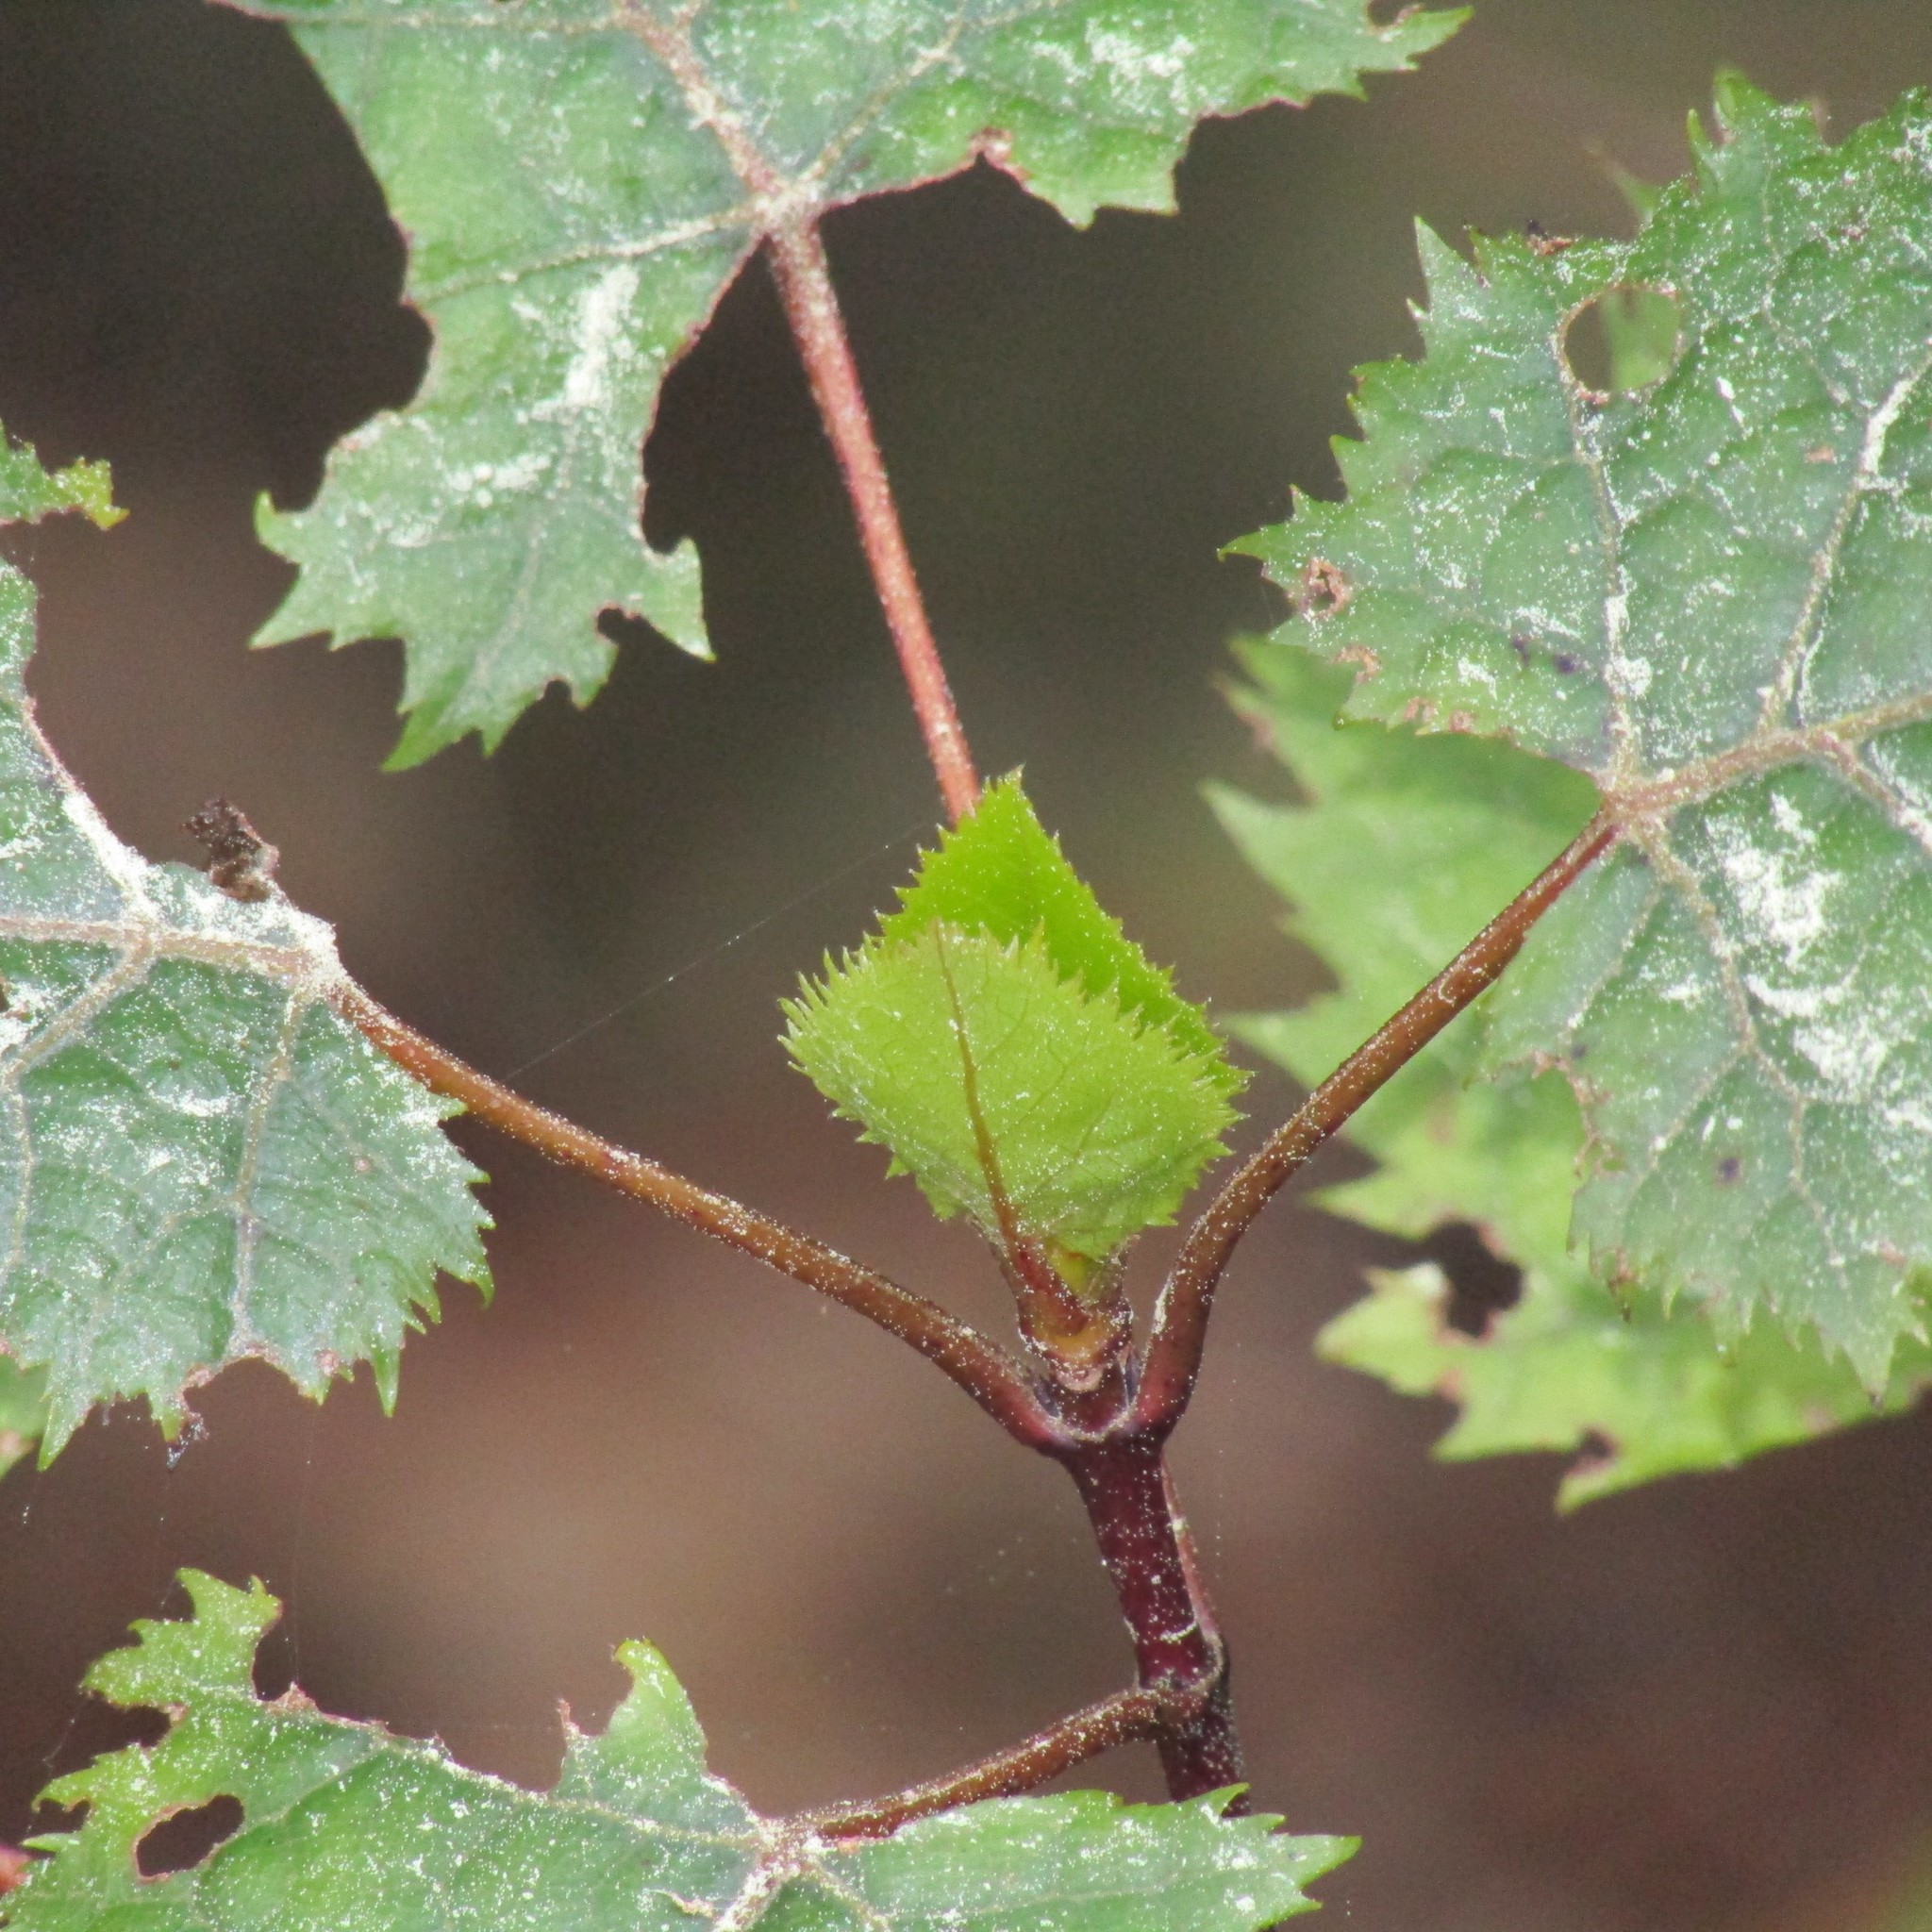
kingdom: Plantae
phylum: Tracheophyta
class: Magnoliopsida
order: Oxalidales
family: Elaeocarpaceae
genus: Aristotelia
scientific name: Aristotelia serrata
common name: New zealand wineberry
